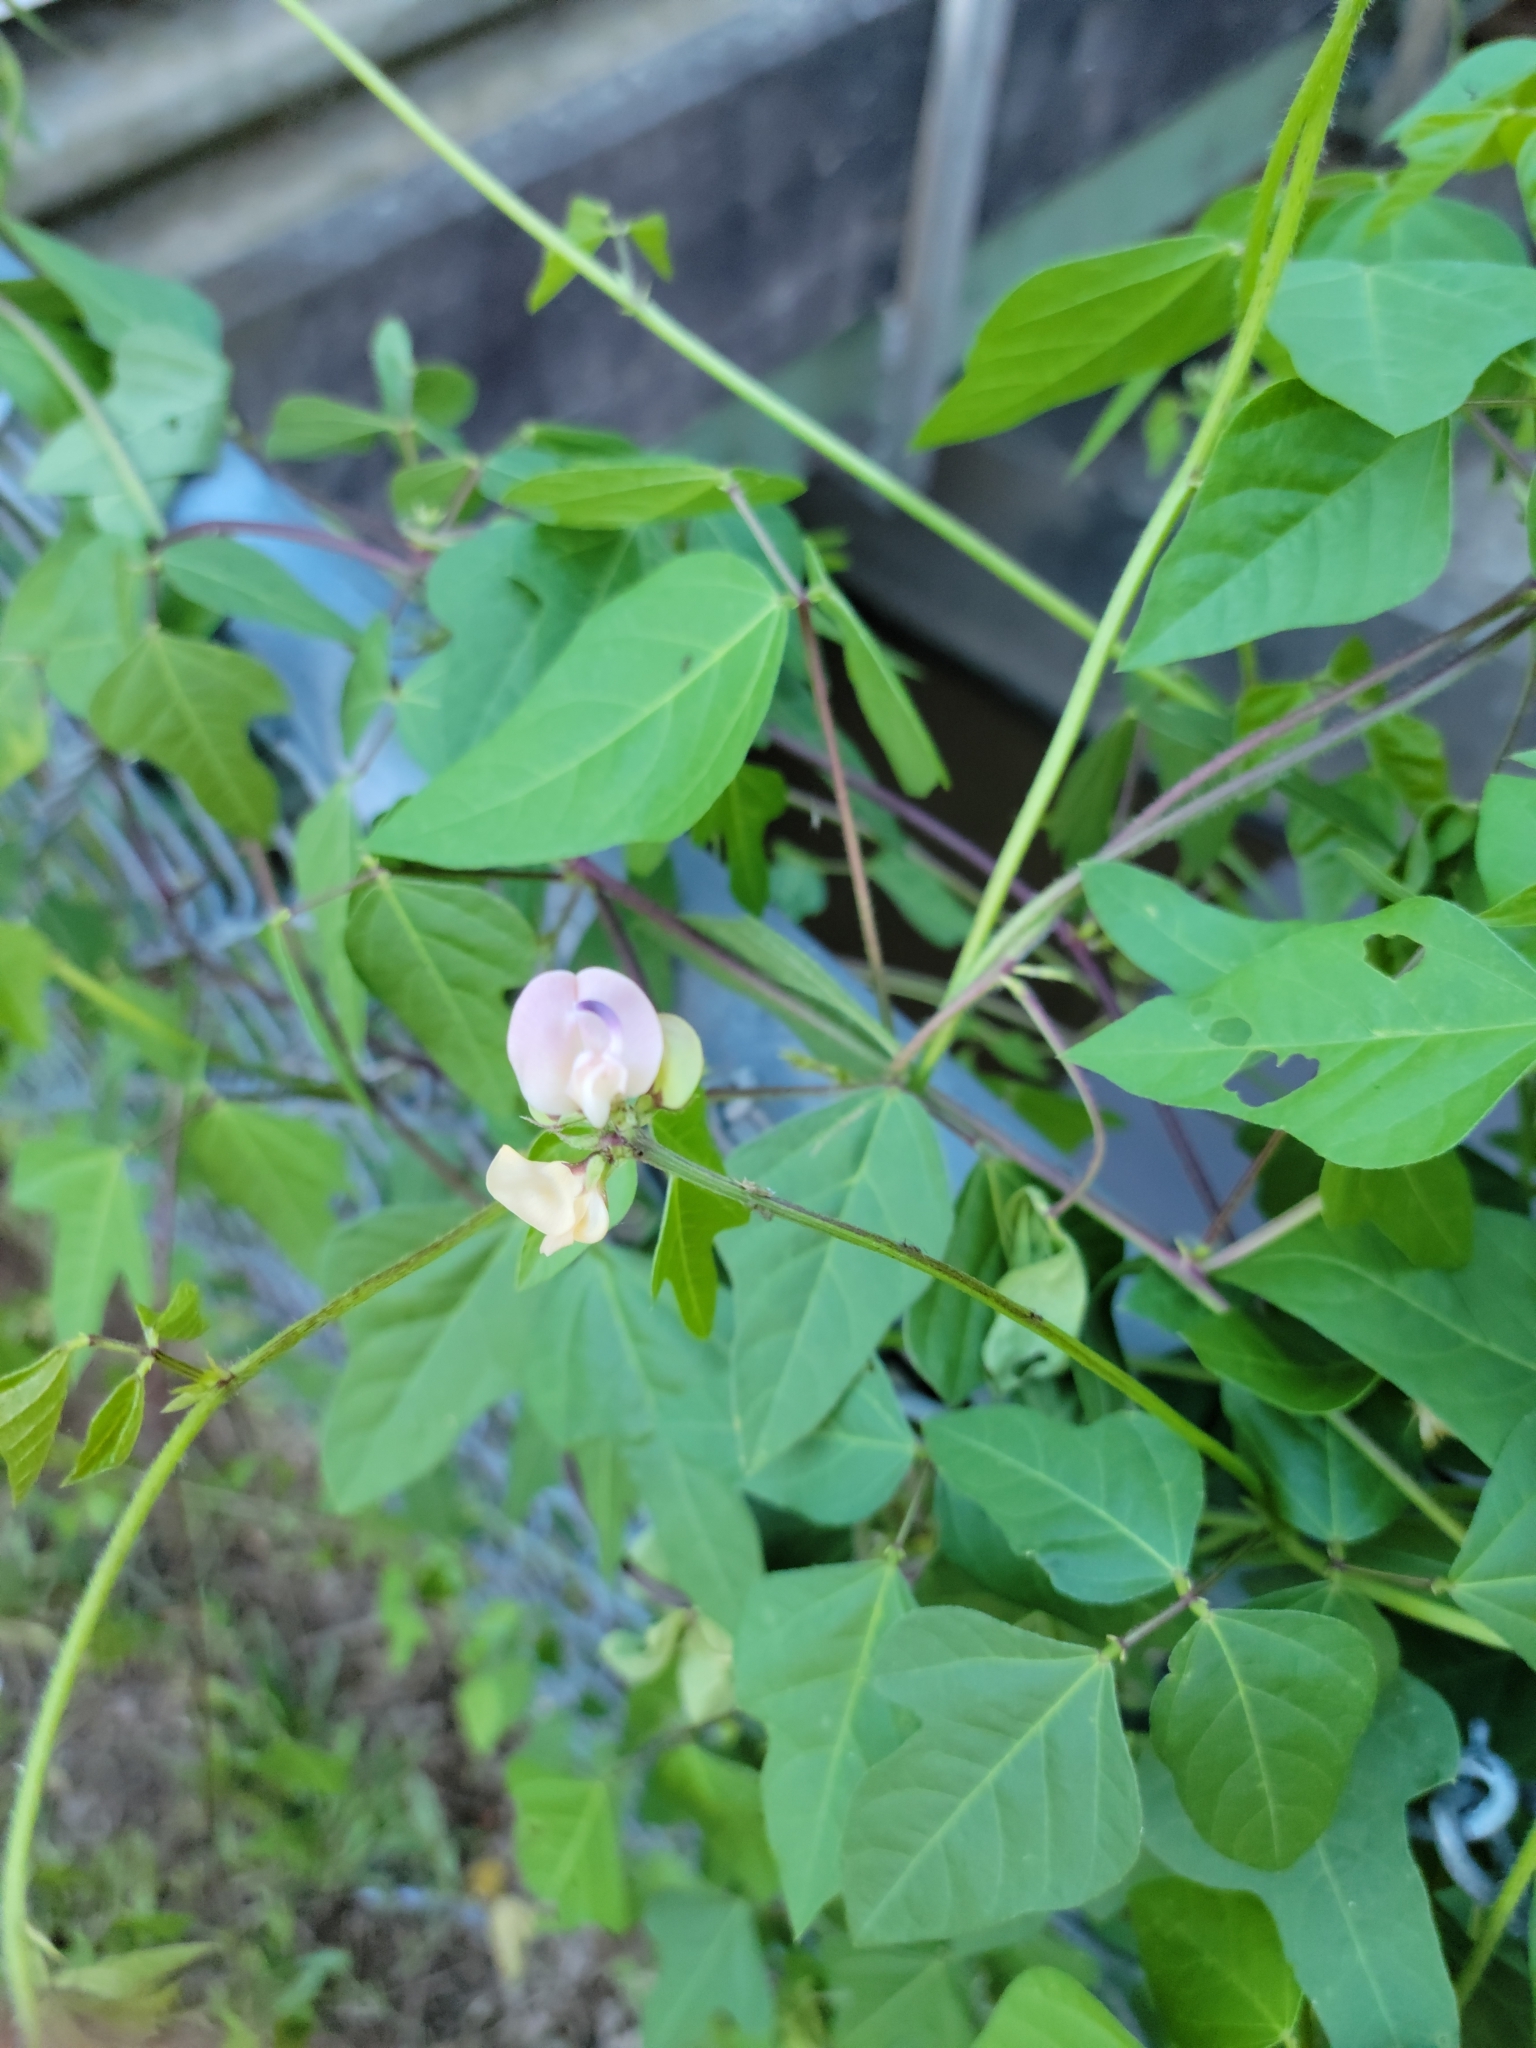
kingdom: Plantae
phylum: Tracheophyta
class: Magnoliopsida
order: Fabales
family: Fabaceae
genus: Strophostyles
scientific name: Strophostyles helvola
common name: Trailing wild bean
